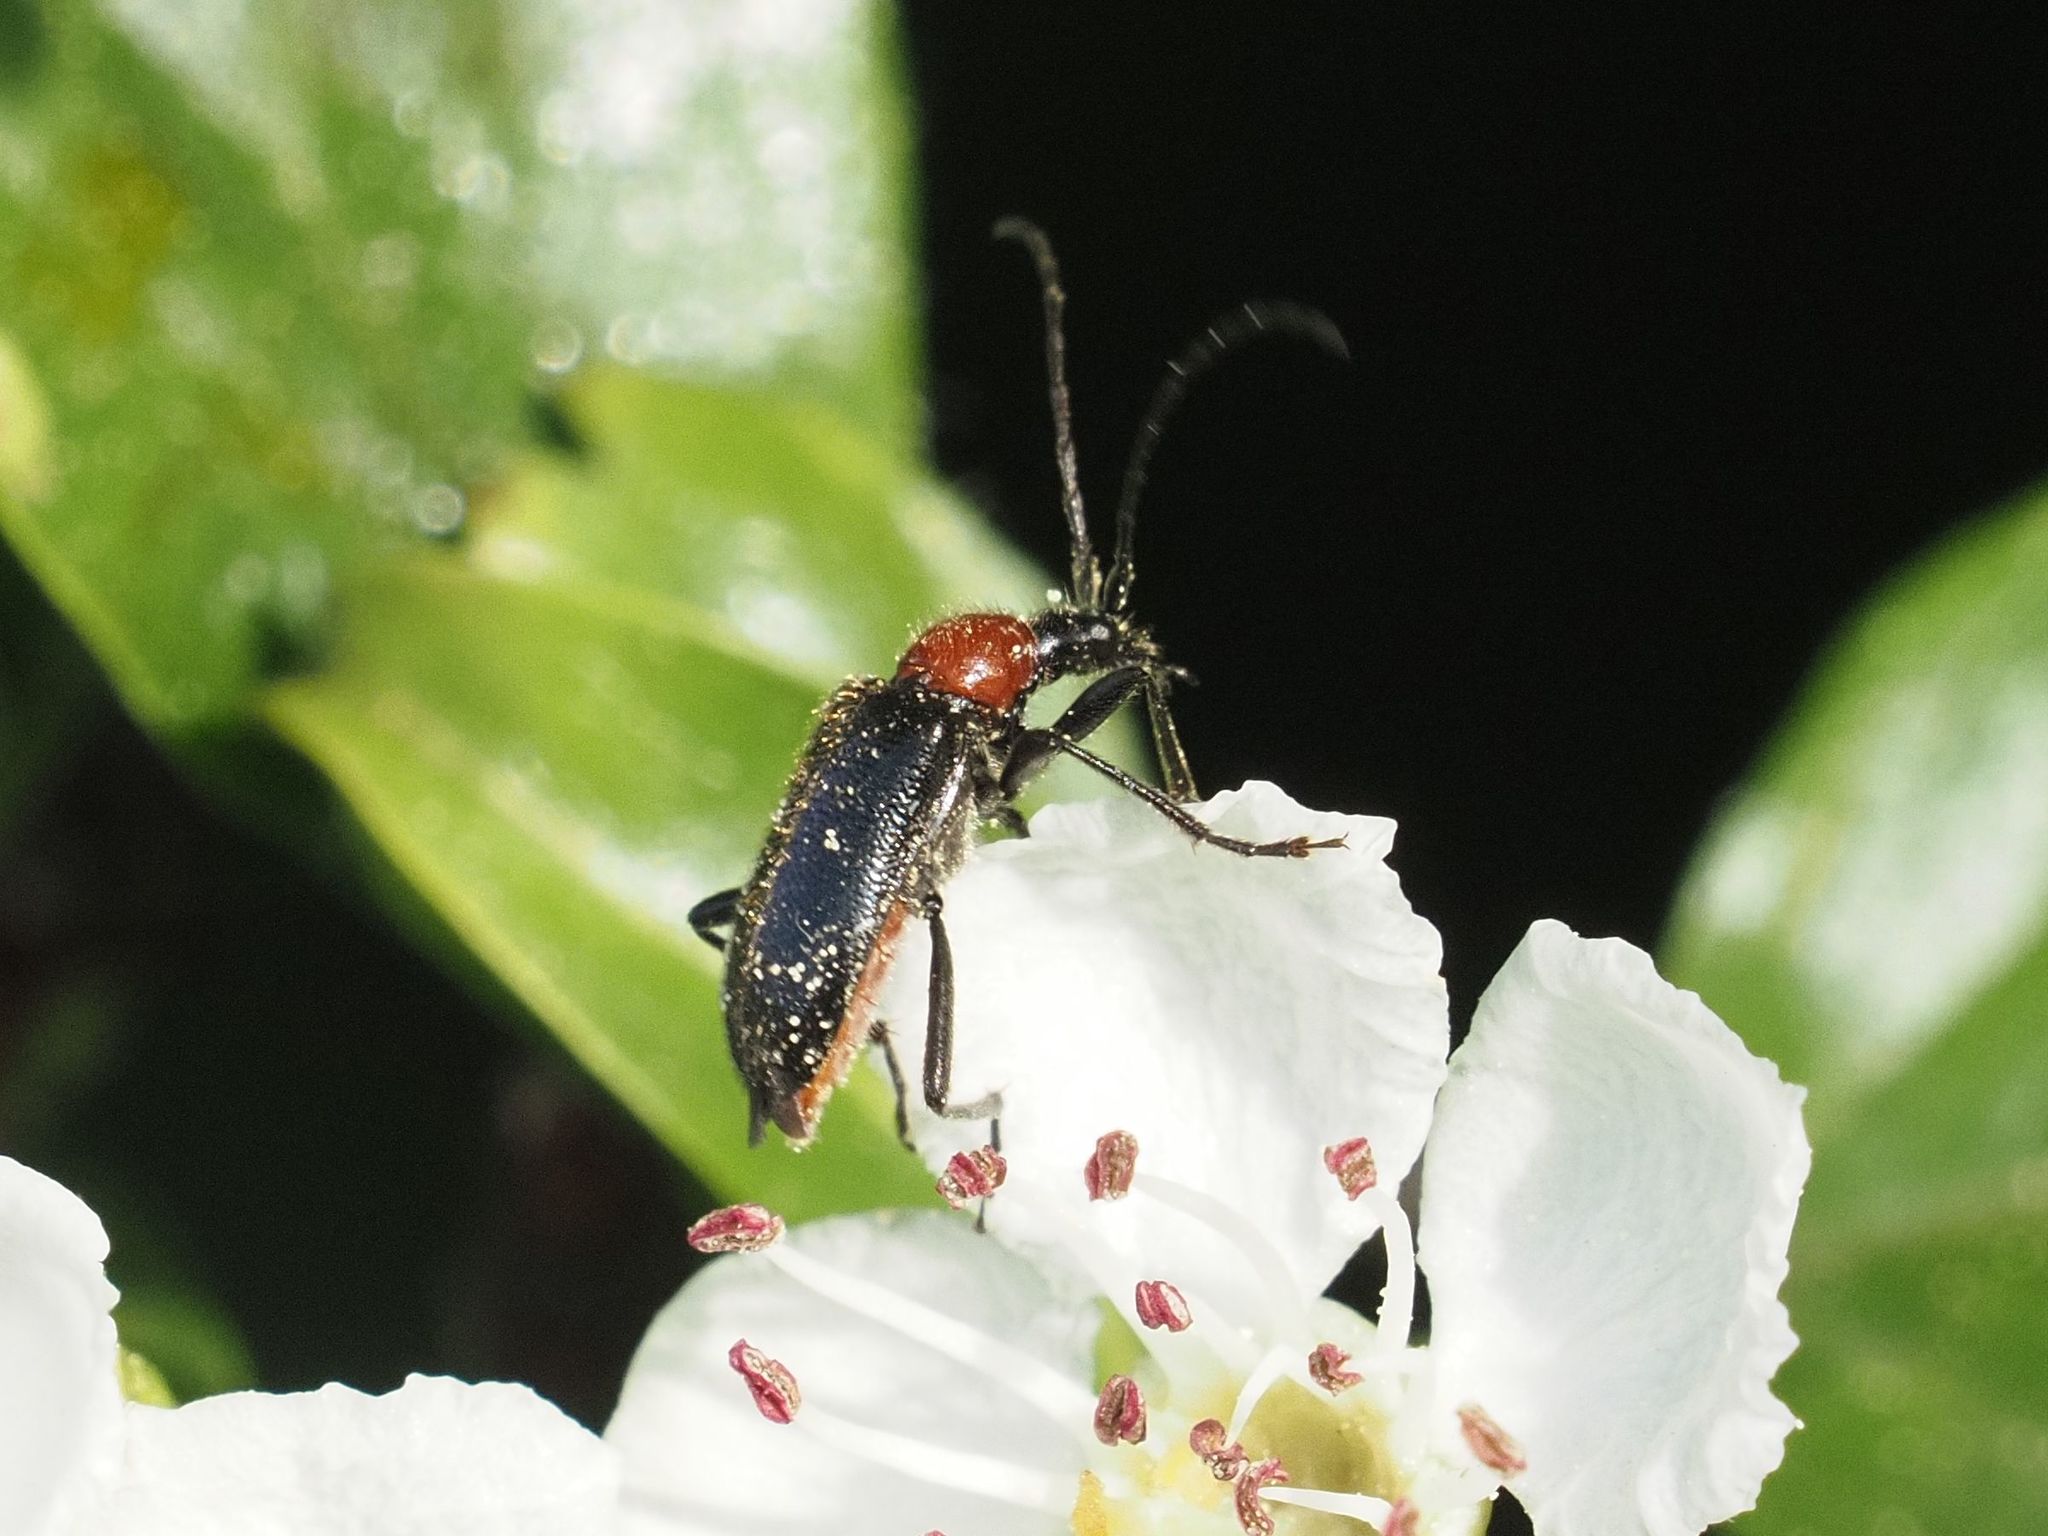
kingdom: Animalia
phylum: Arthropoda
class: Insecta
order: Coleoptera
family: Cerambycidae
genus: Dinoptera
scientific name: Dinoptera collaris
